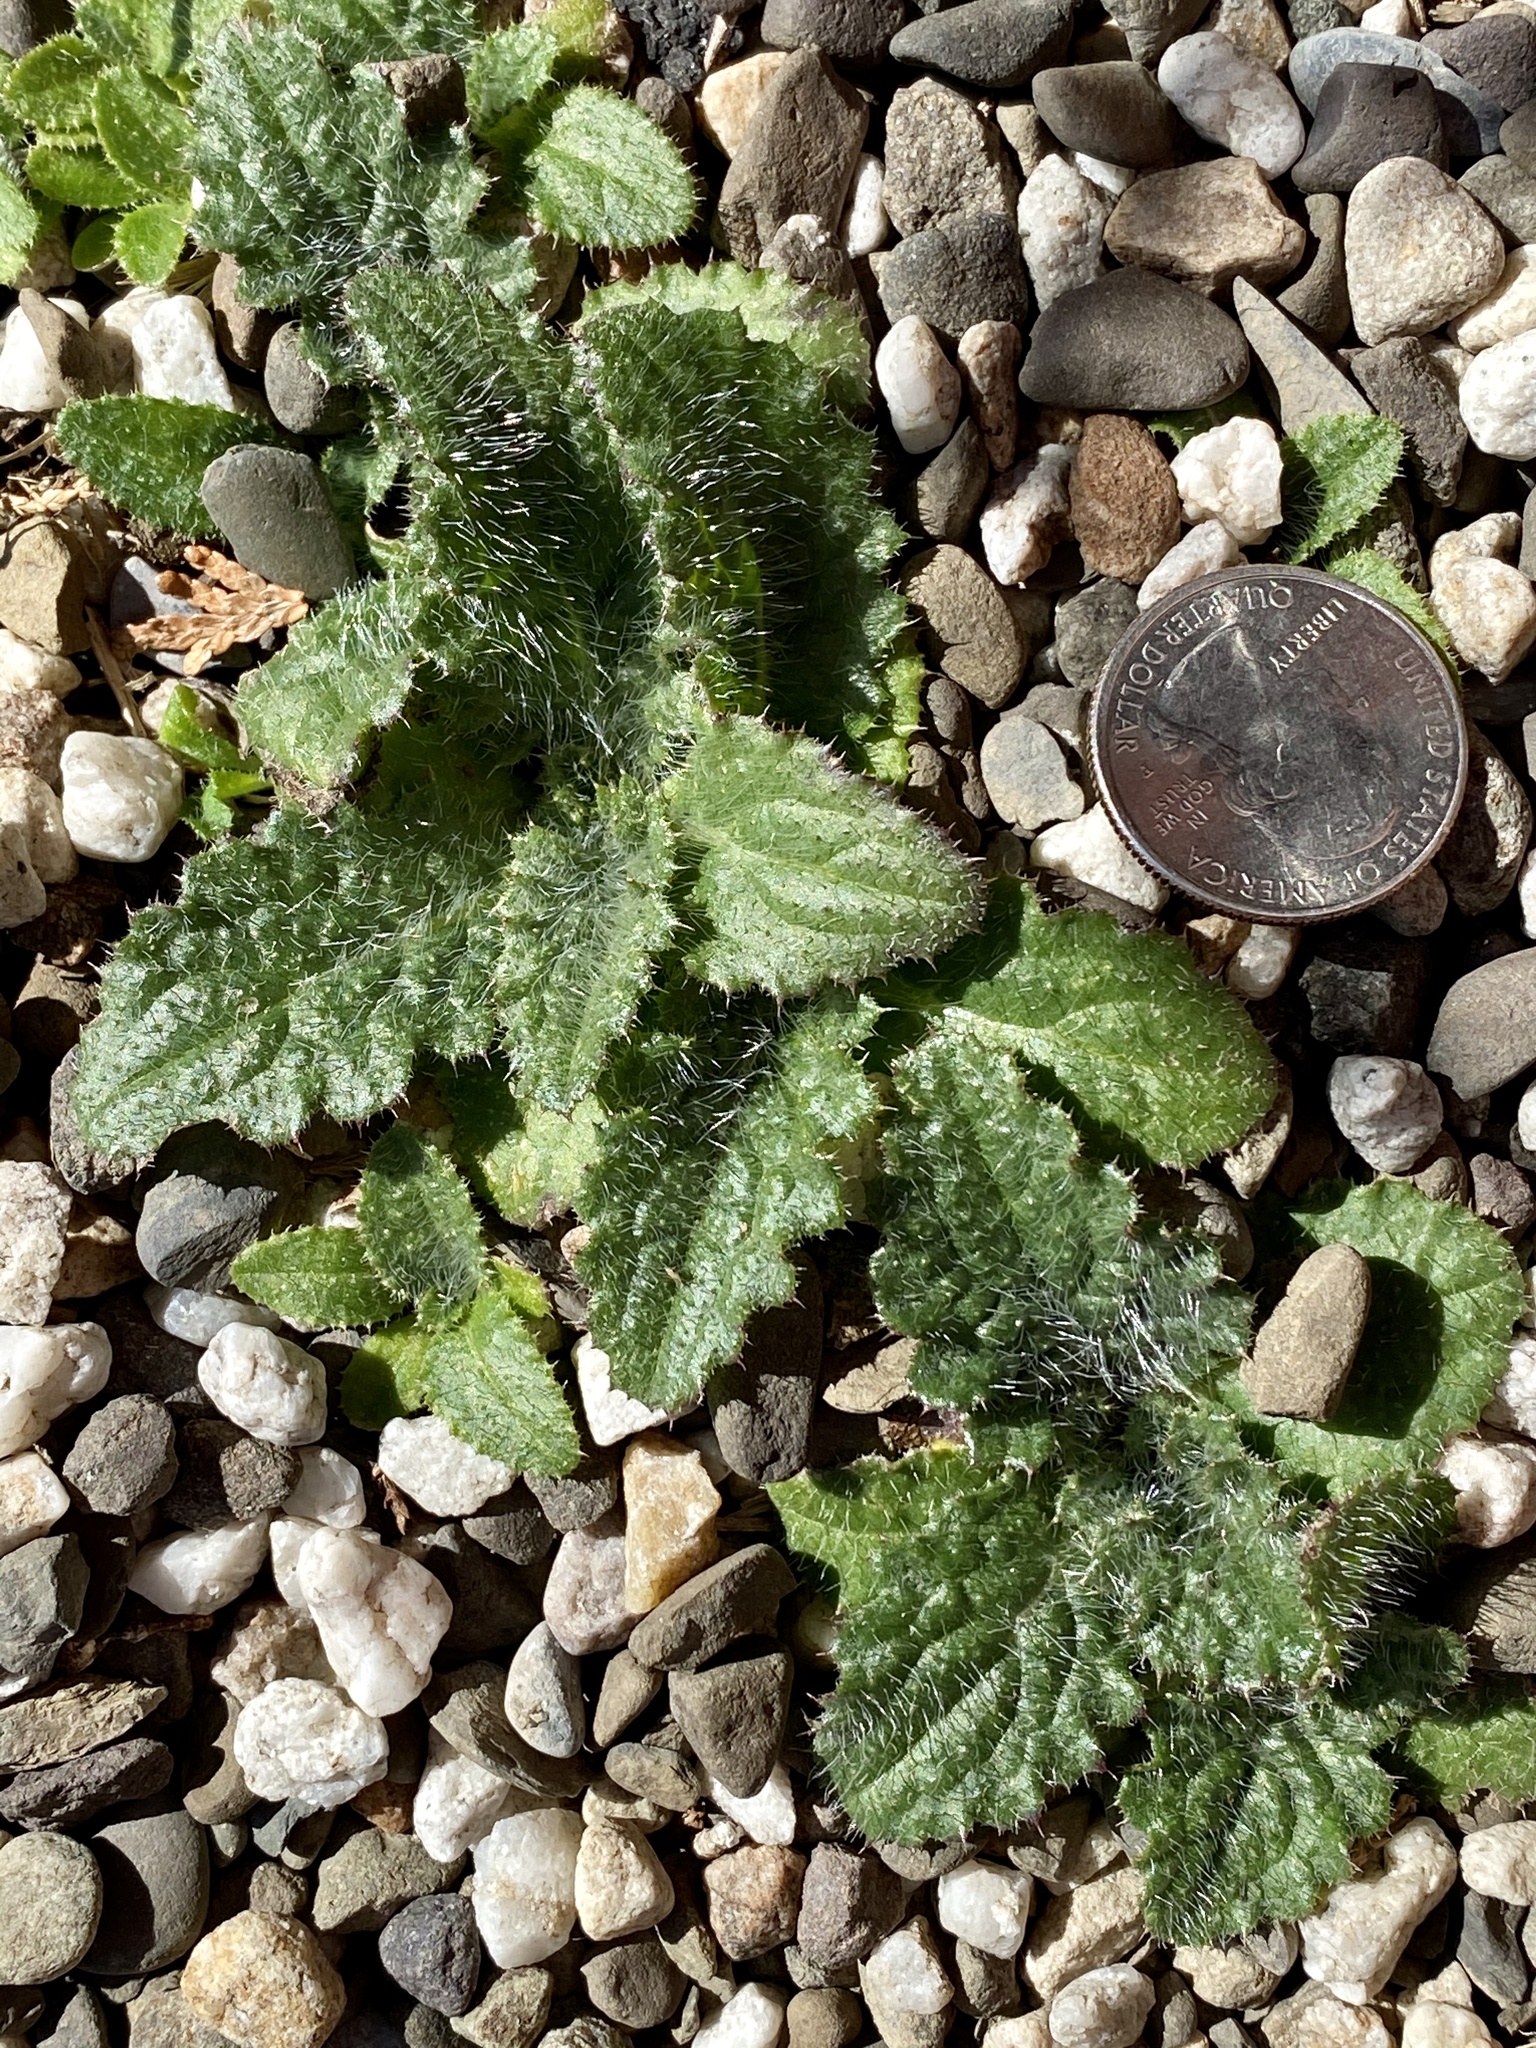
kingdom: Plantae
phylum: Tracheophyta
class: Magnoliopsida
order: Asterales
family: Asteraceae
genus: Cirsium
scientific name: Cirsium vulgare
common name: Bull thistle
